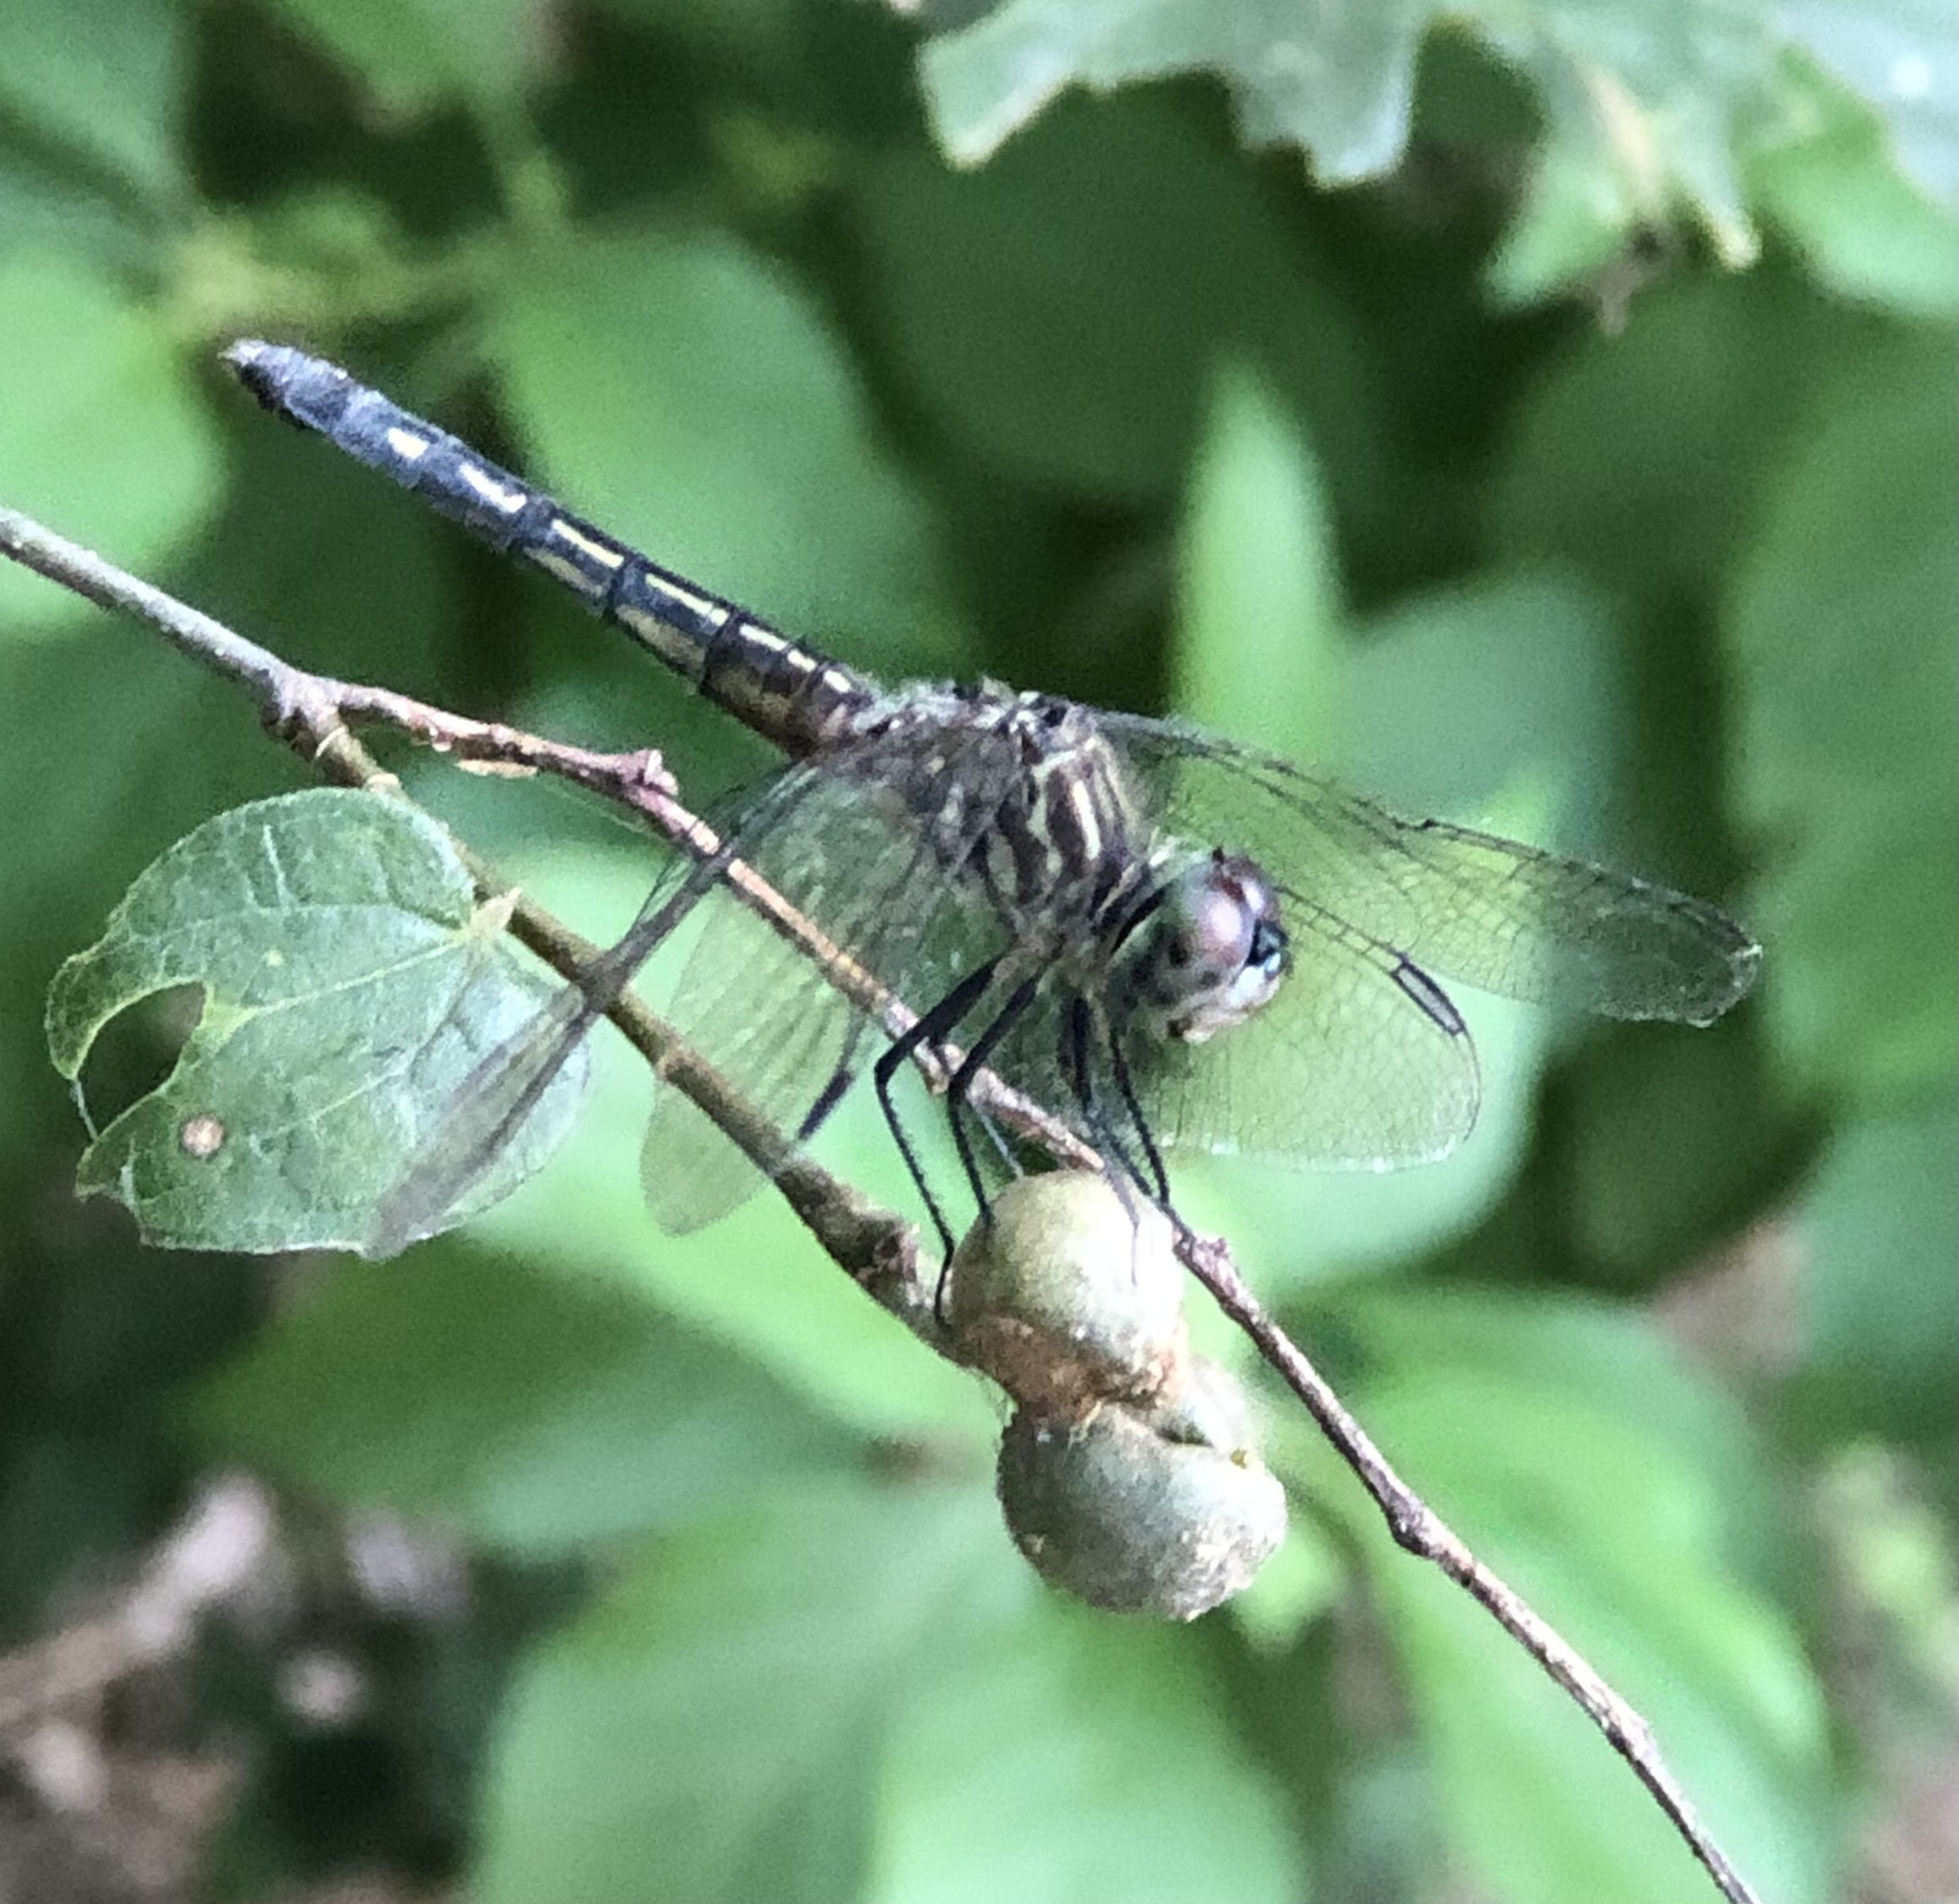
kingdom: Animalia
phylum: Arthropoda
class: Insecta
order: Odonata
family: Libellulidae
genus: Pachydiplax
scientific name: Pachydiplax longipennis
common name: Blue dasher
